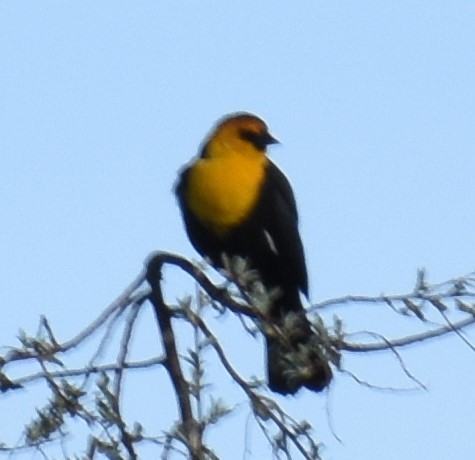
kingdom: Animalia
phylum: Chordata
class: Aves
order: Passeriformes
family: Icteridae
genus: Xanthocephalus
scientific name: Xanthocephalus xanthocephalus
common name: Yellow-headed blackbird
